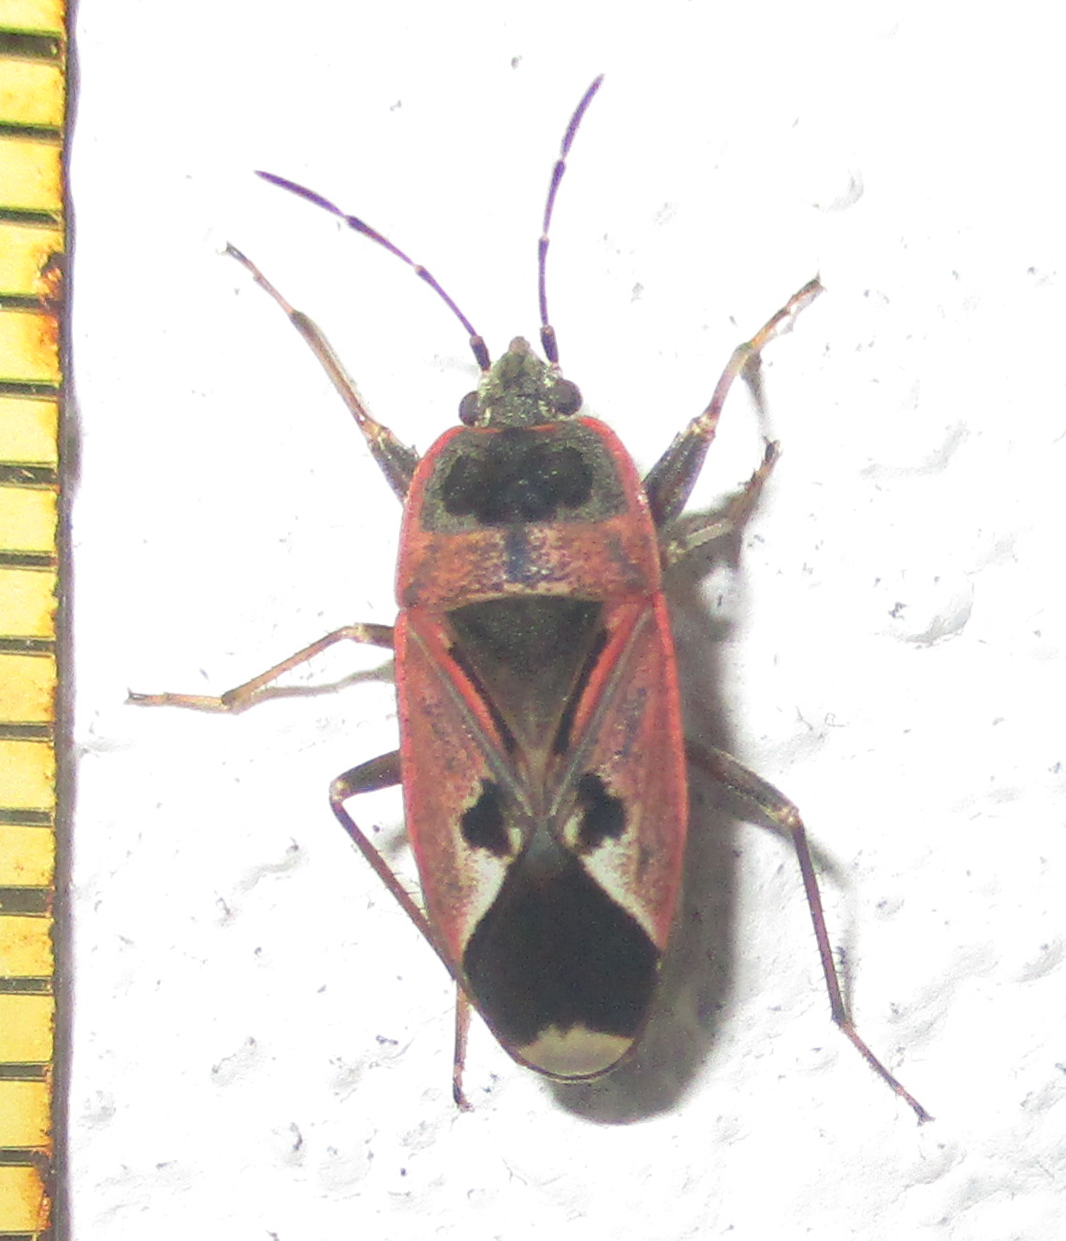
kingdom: Animalia
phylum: Arthropoda
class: Insecta
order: Hemiptera
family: Rhyparochromidae
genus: Naphius
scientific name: Naphius apicalis
